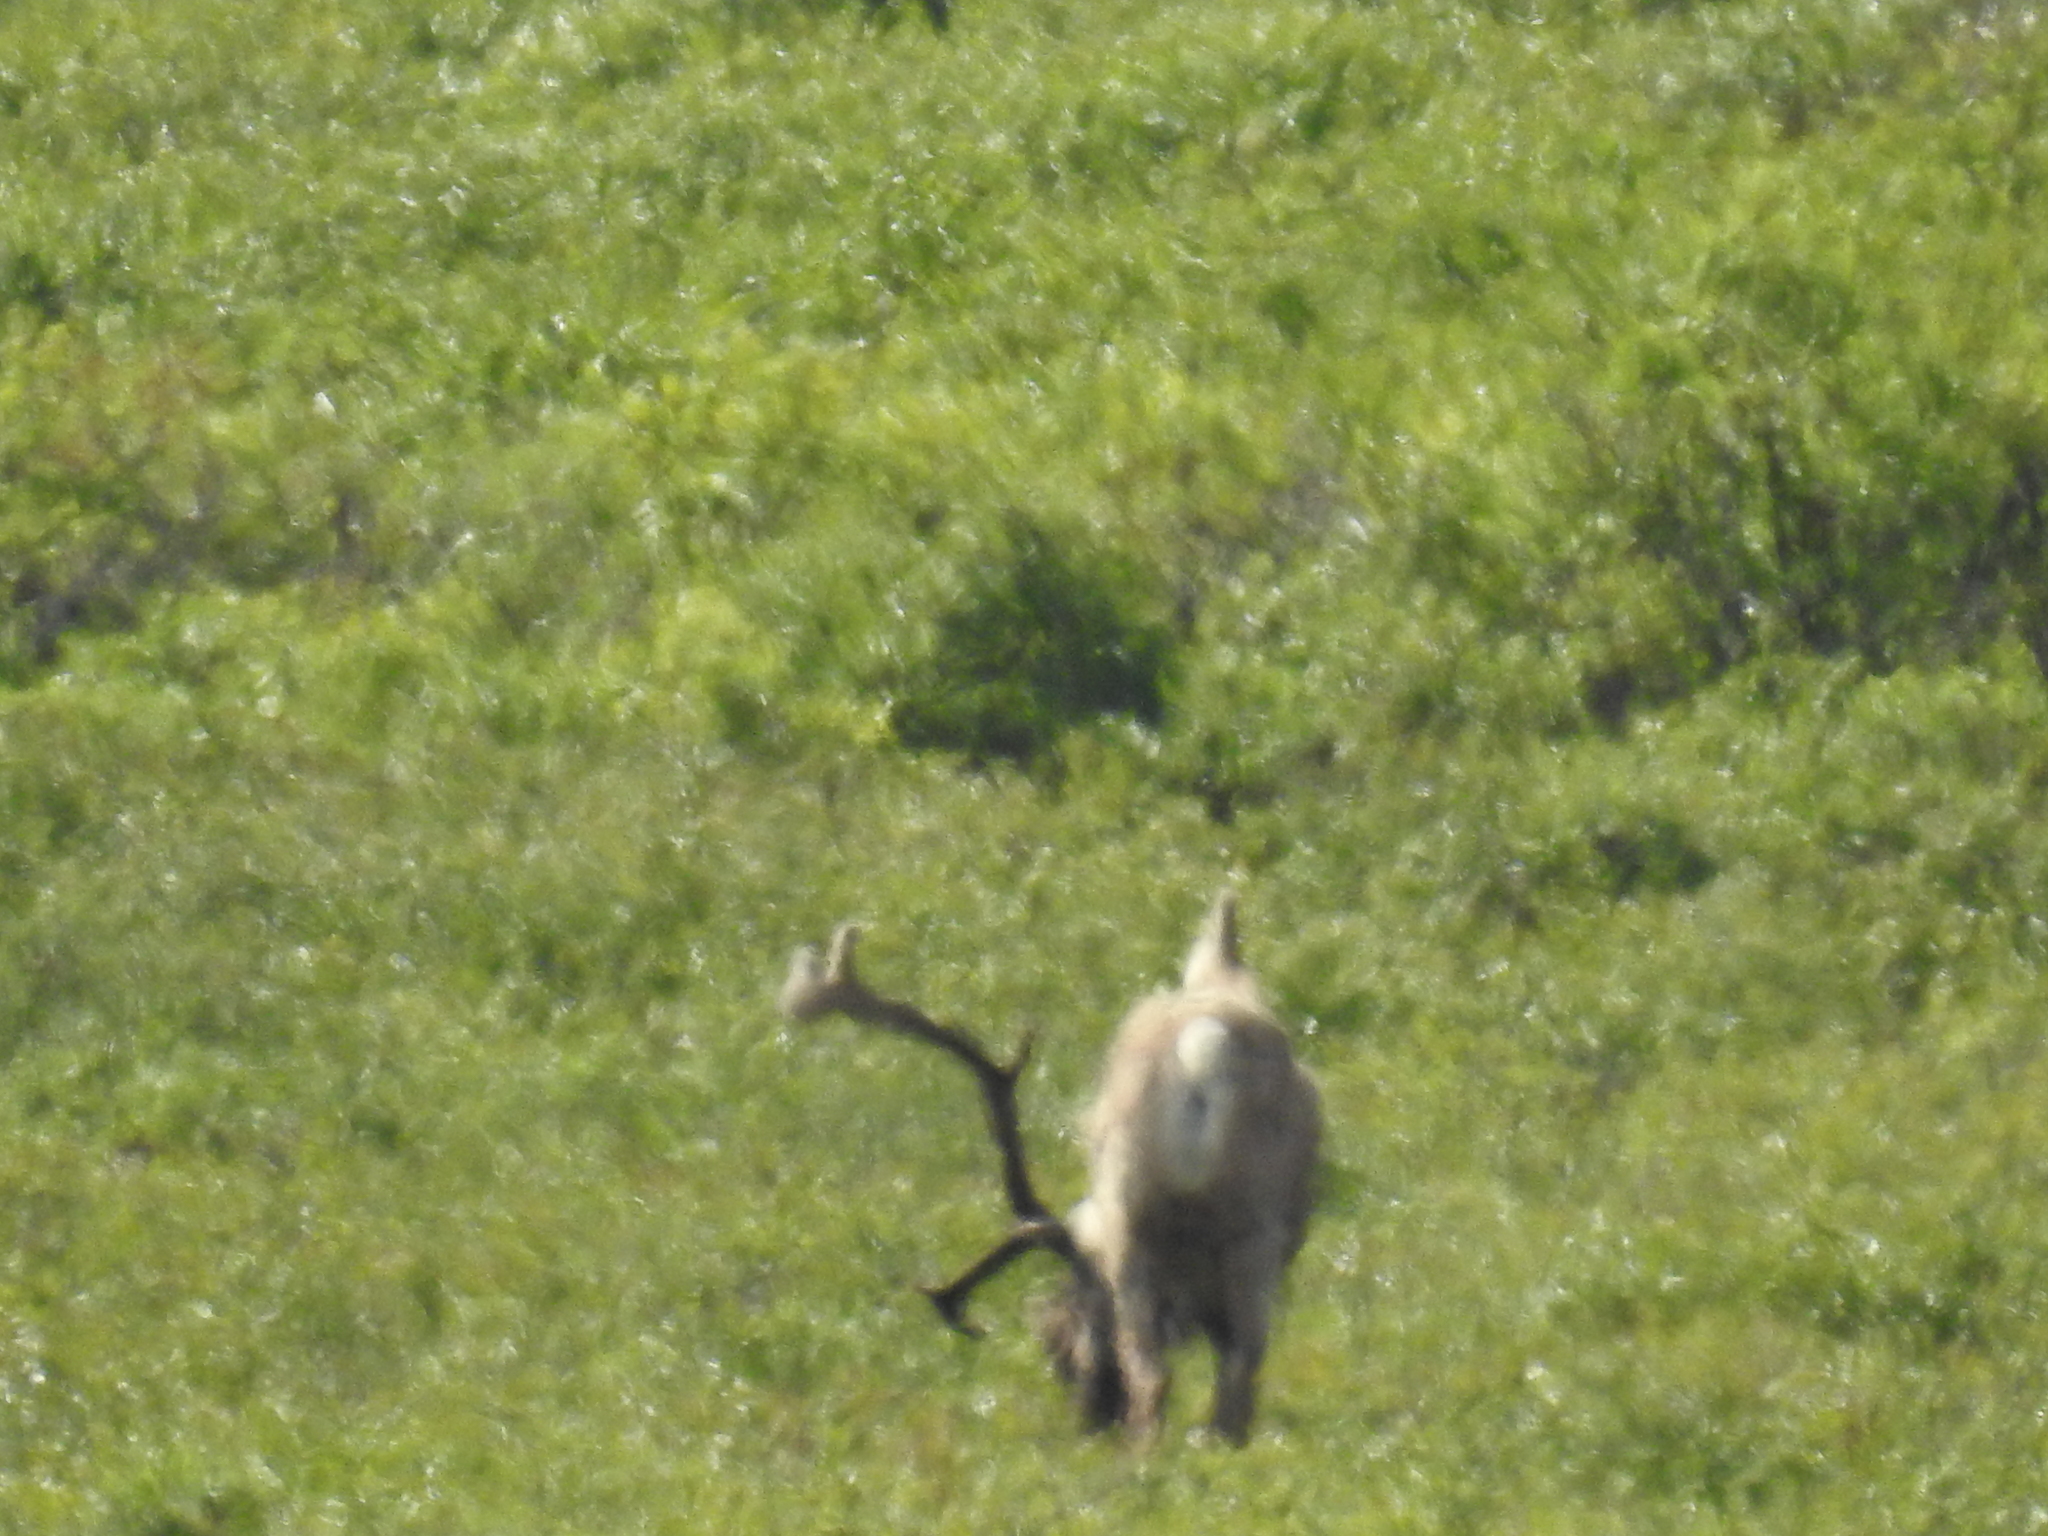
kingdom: Animalia
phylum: Chordata
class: Mammalia
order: Artiodactyla
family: Cervidae
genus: Rangifer
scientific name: Rangifer tarandus
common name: Reindeer
